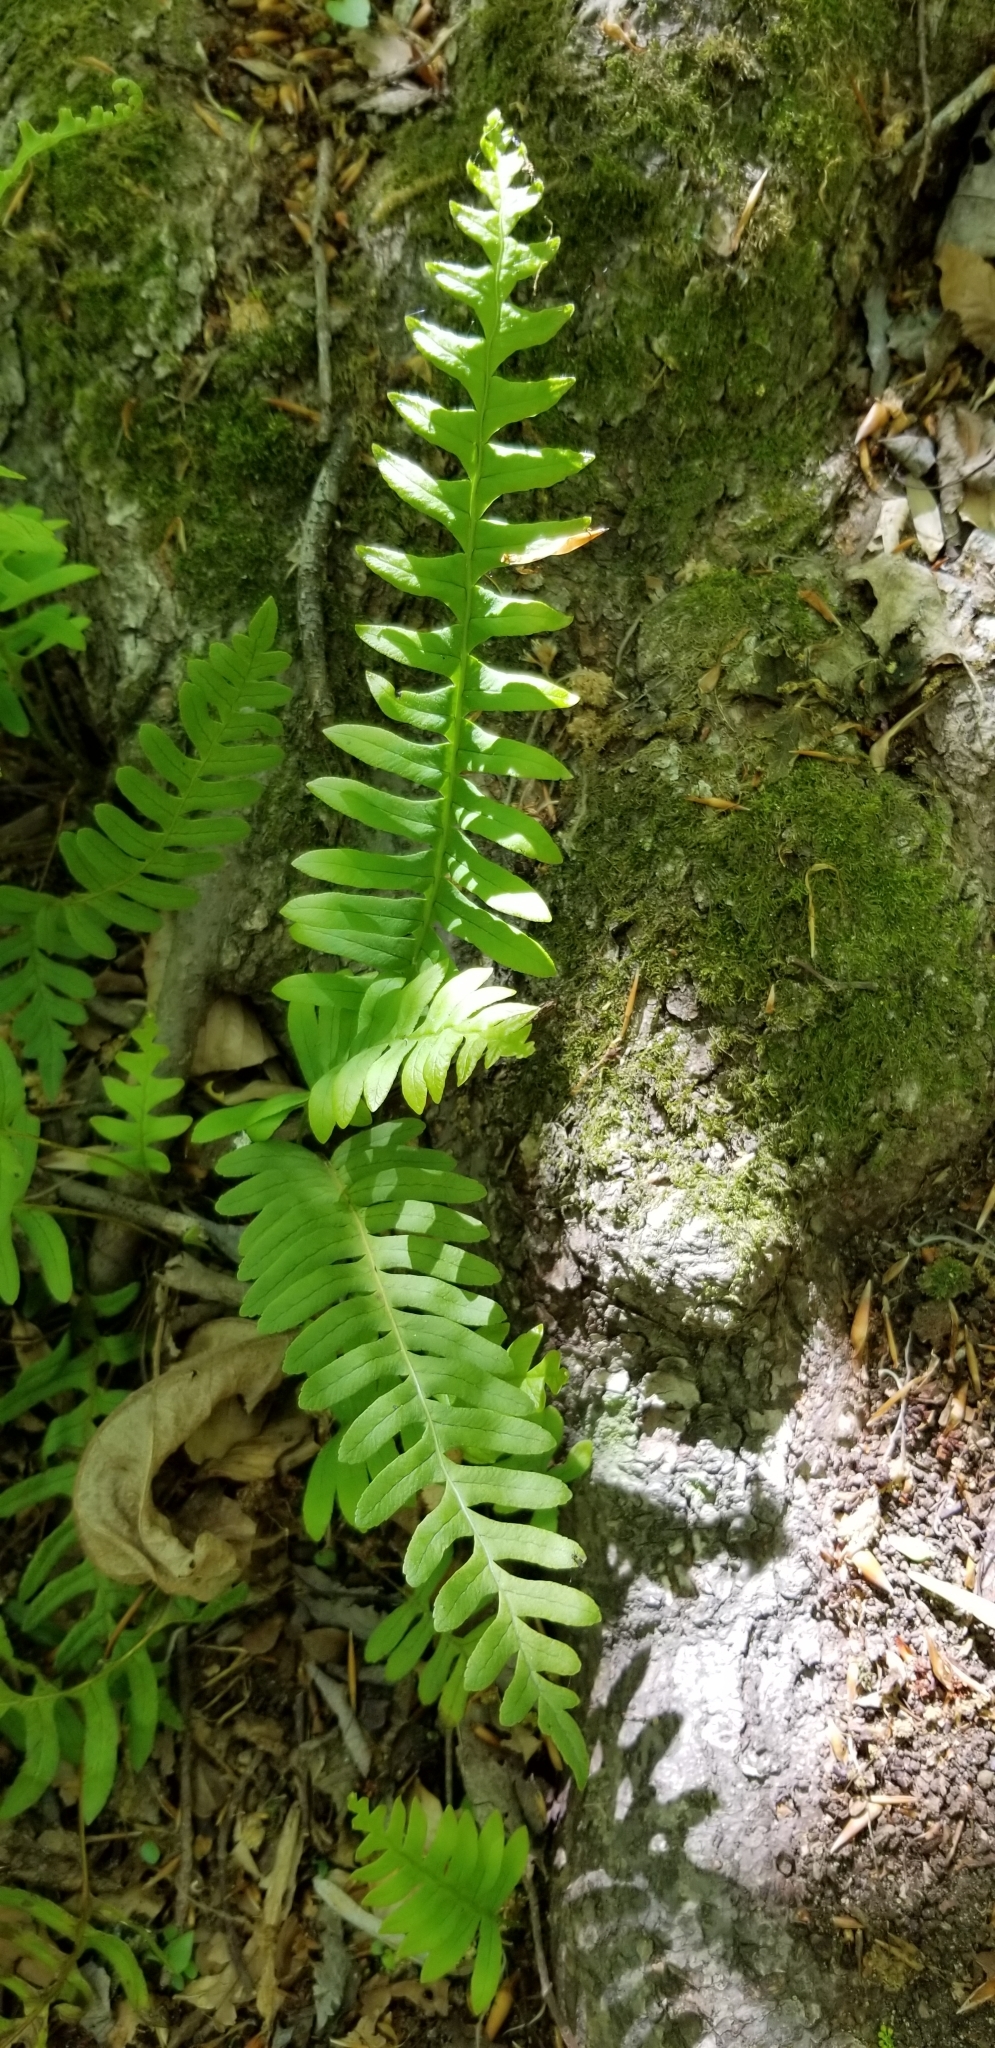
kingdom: Plantae
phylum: Tracheophyta
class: Polypodiopsida
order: Polypodiales
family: Polypodiaceae
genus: Polypodium
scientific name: Polypodium virginianum
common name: American wall fern
